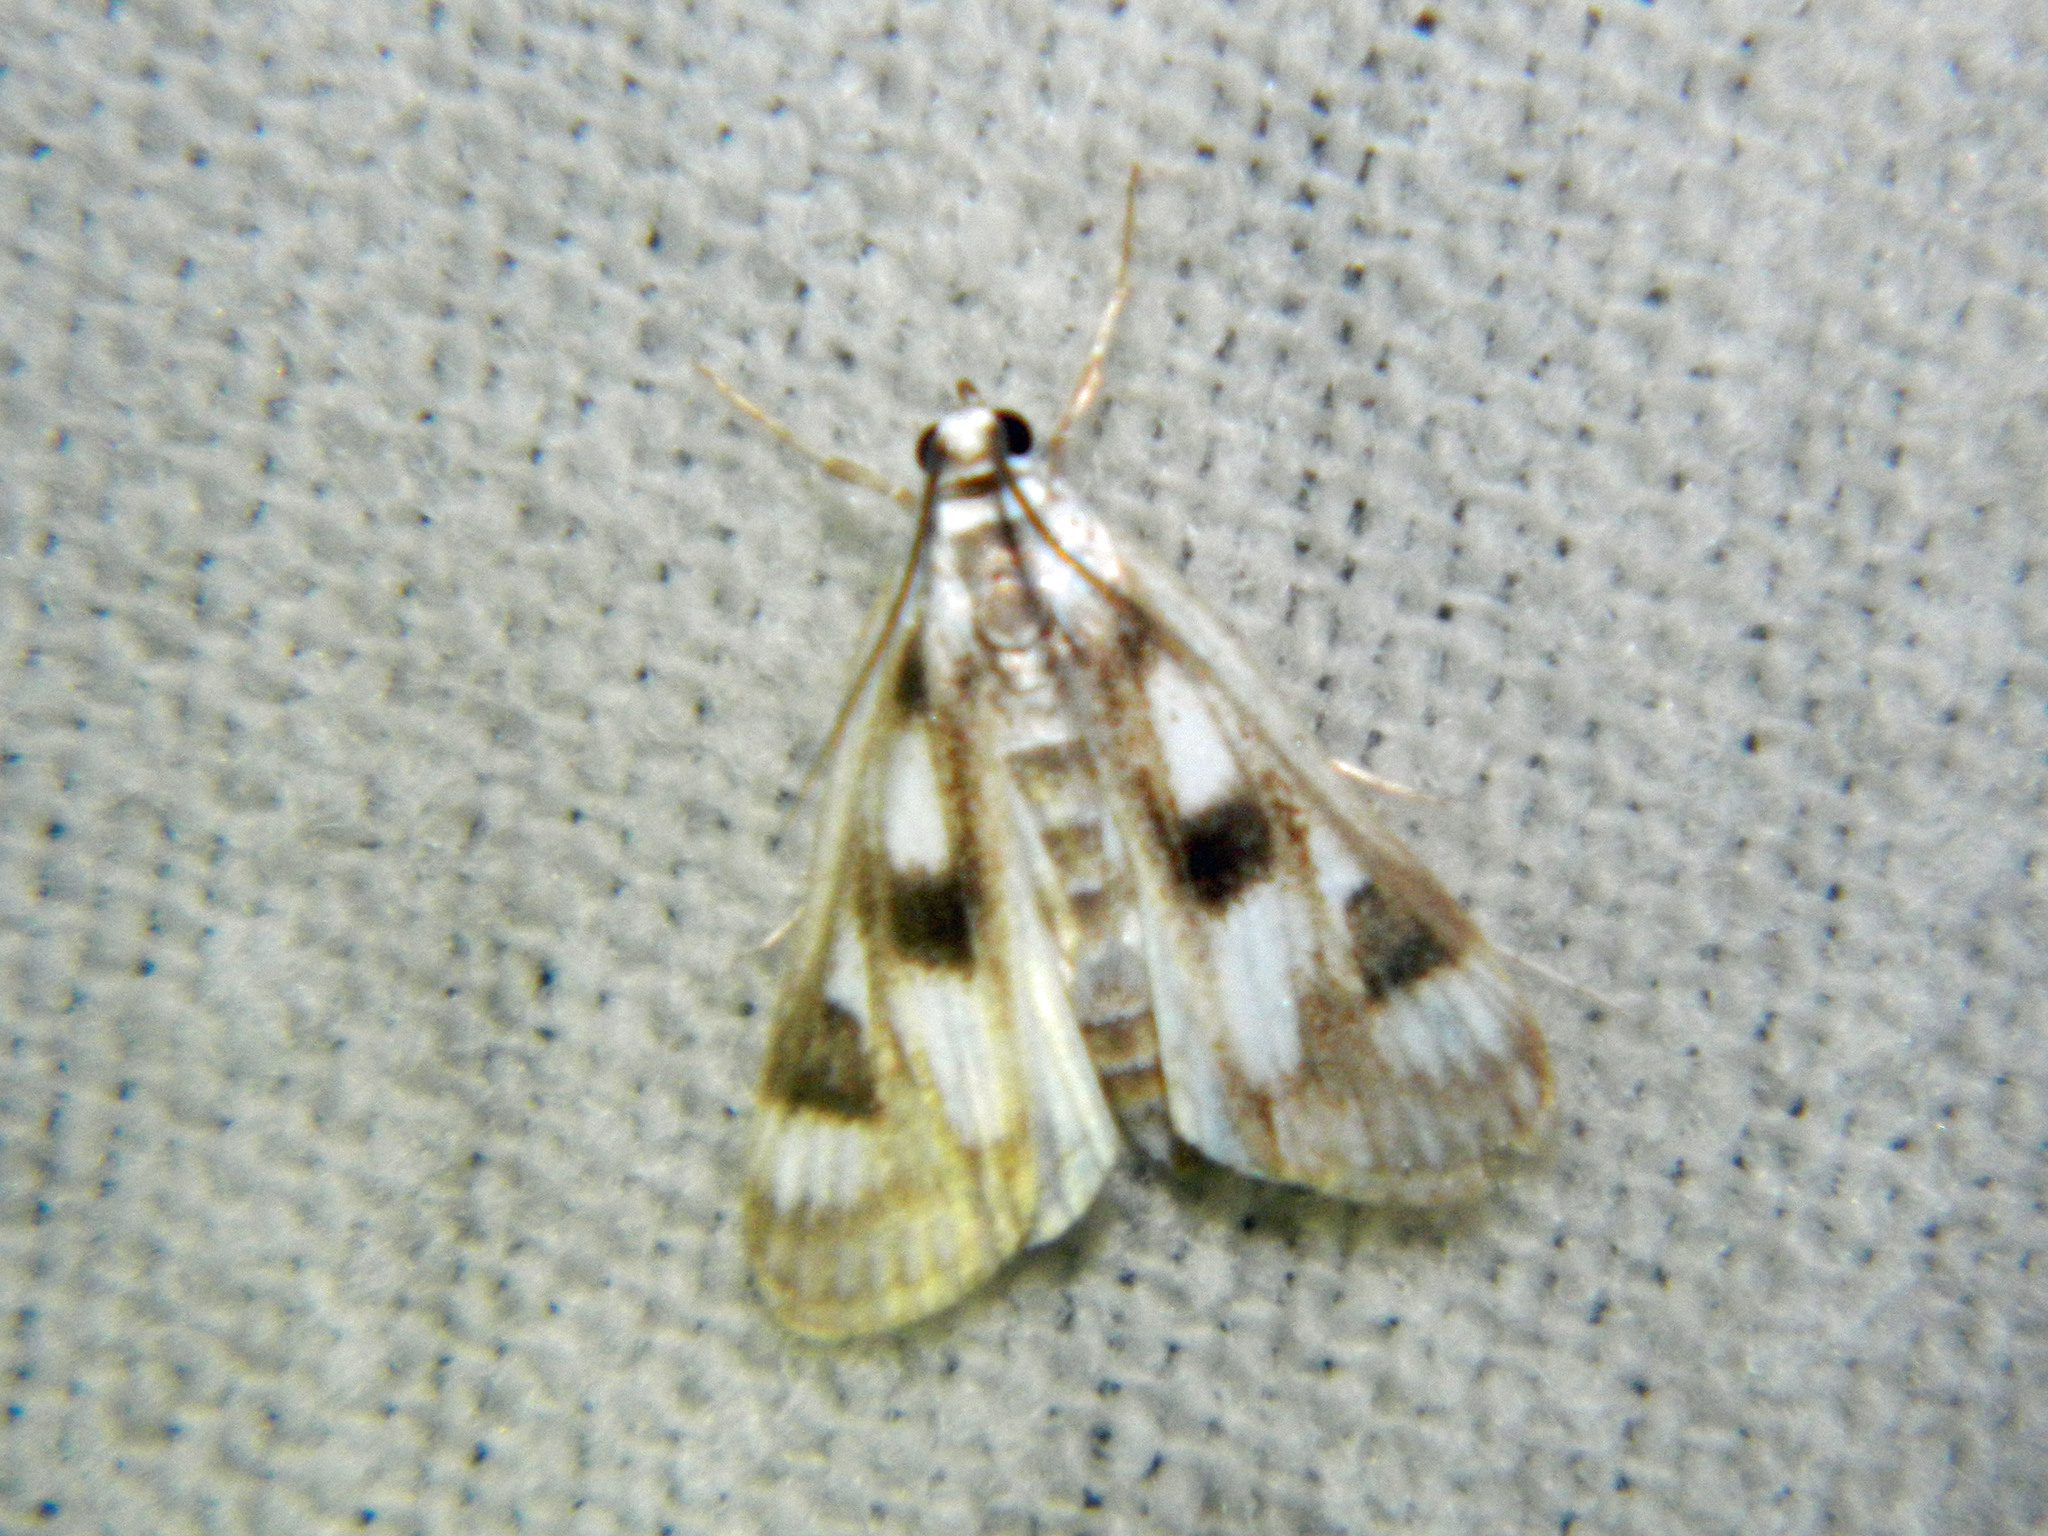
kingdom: Animalia
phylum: Arthropoda
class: Insecta
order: Lepidoptera
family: Crambidae
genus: Parapoynx
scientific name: Parapoynx maculalis
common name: Polymorphic pondweed moth
